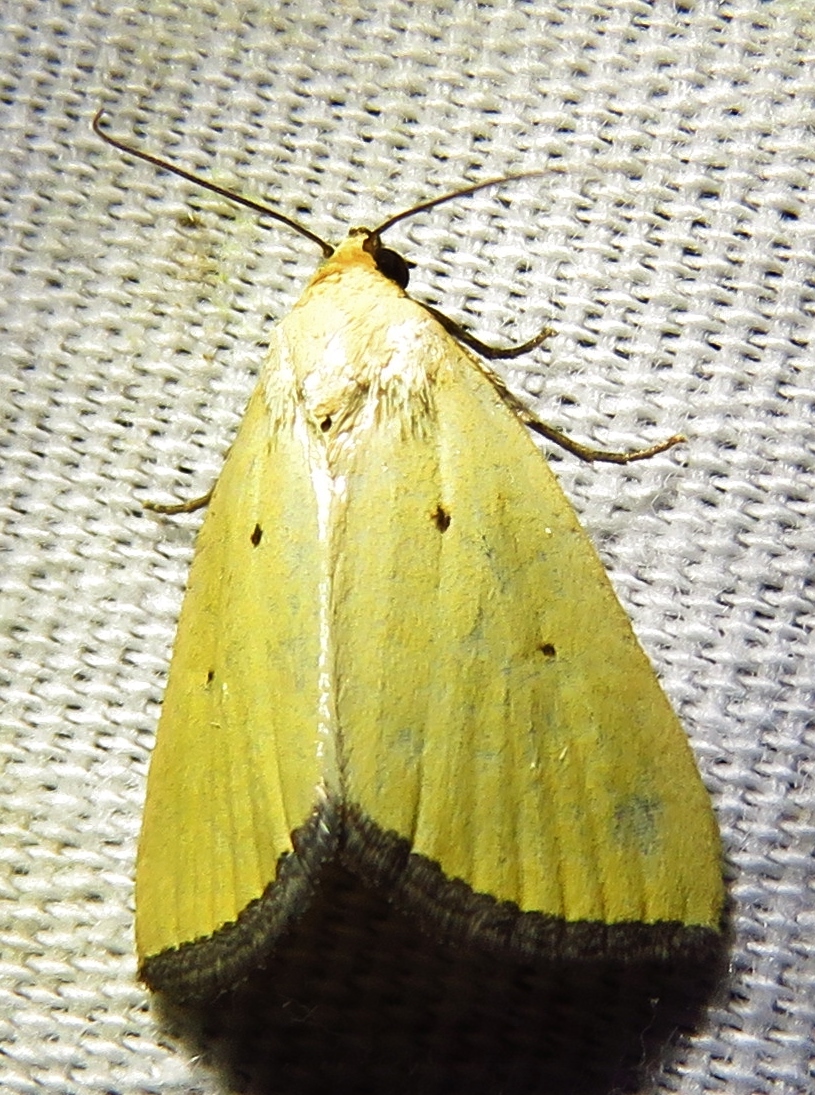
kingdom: Animalia
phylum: Arthropoda
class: Insecta
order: Lepidoptera
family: Noctuidae
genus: Marimatha
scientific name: Marimatha nigrofimbria
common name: Black-bordered lemon moth
